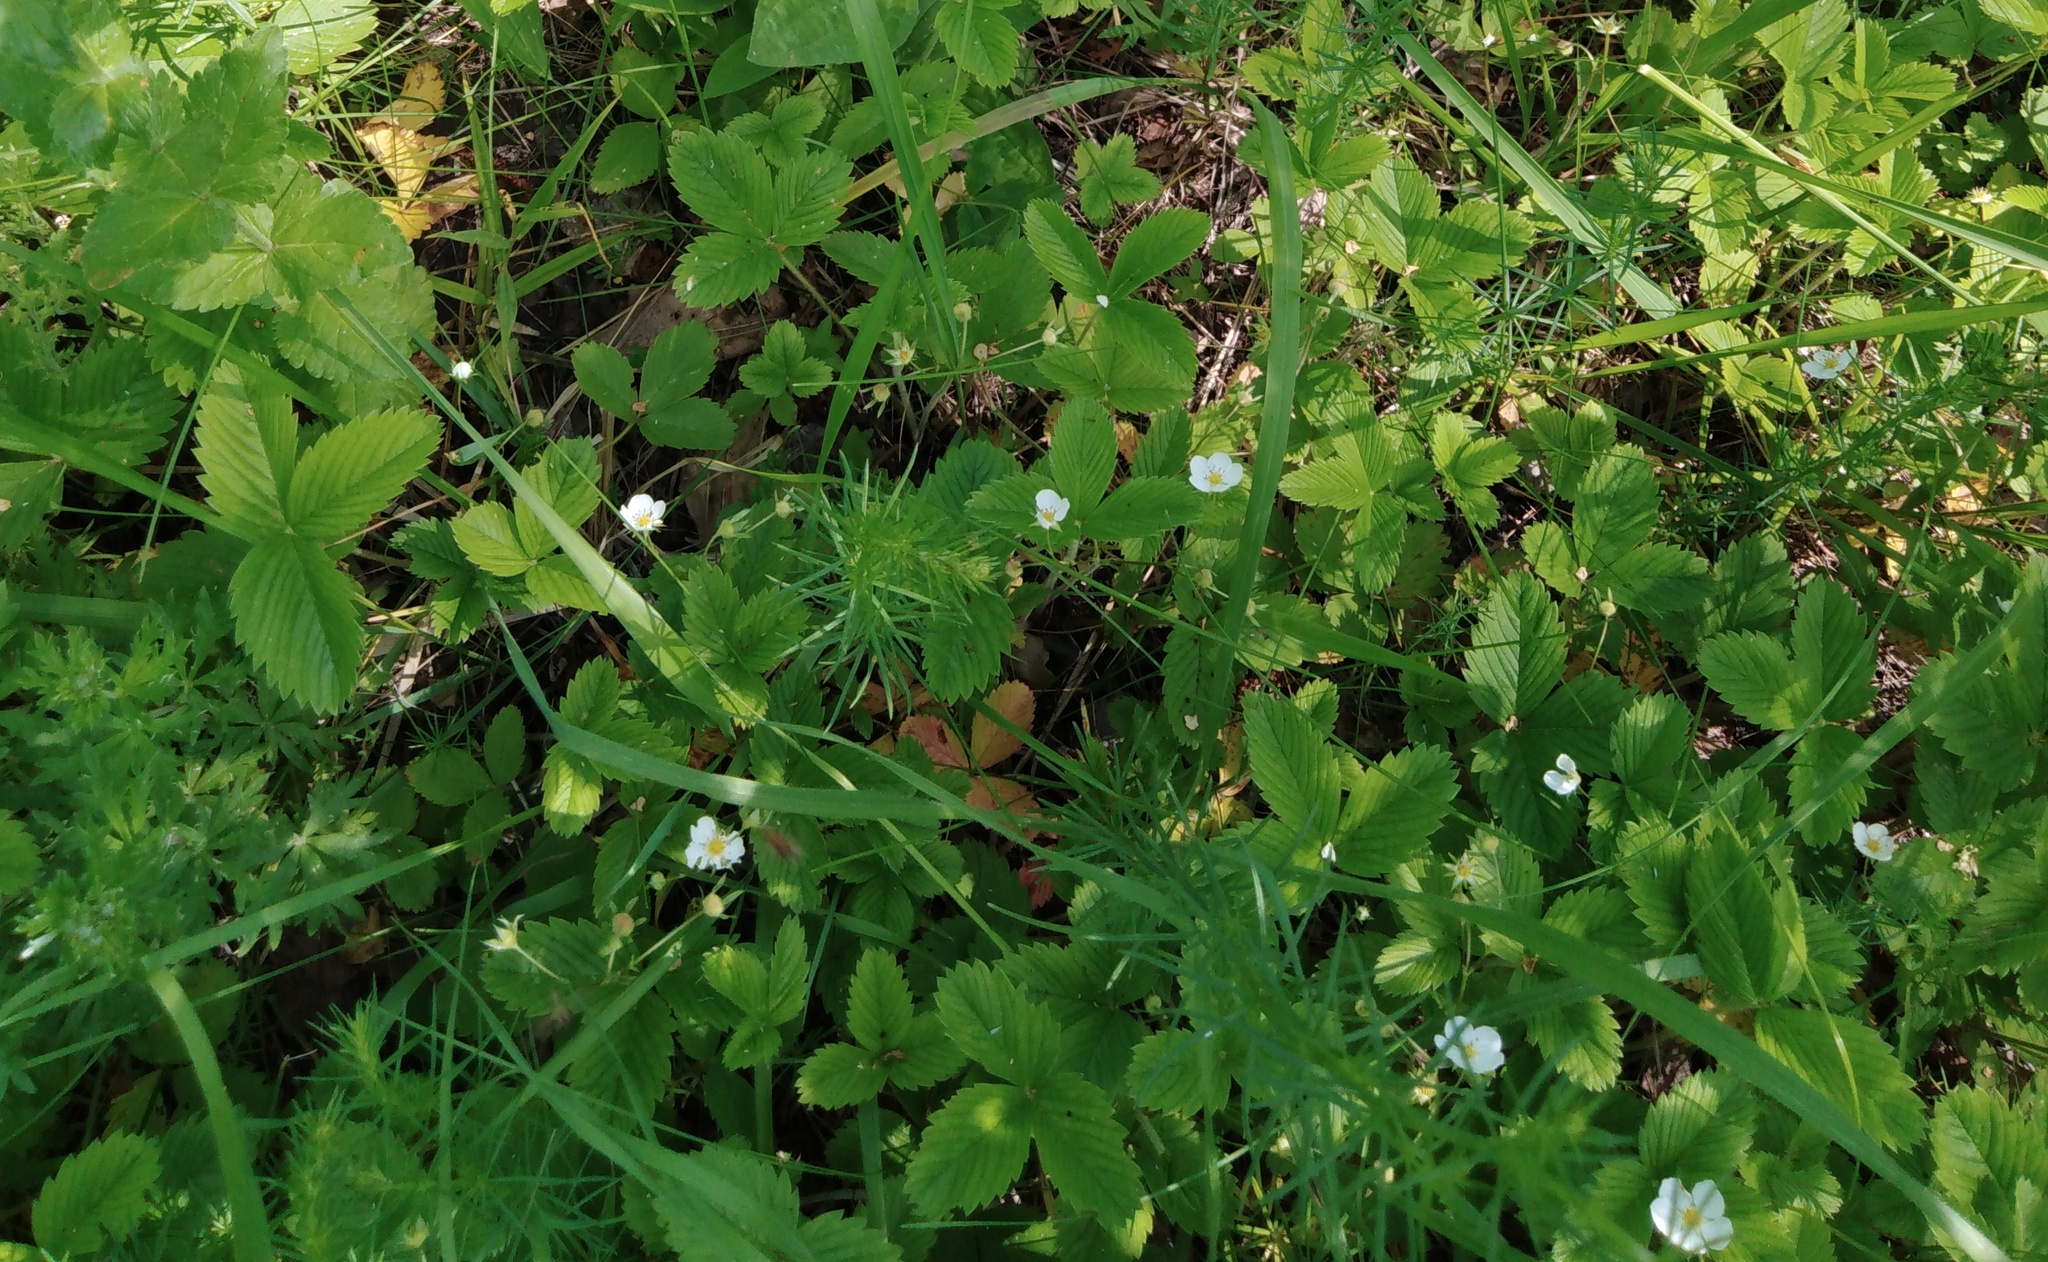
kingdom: Plantae
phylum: Tracheophyta
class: Magnoliopsida
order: Rosales
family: Rosaceae
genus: Fragaria
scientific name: Fragaria viridis
